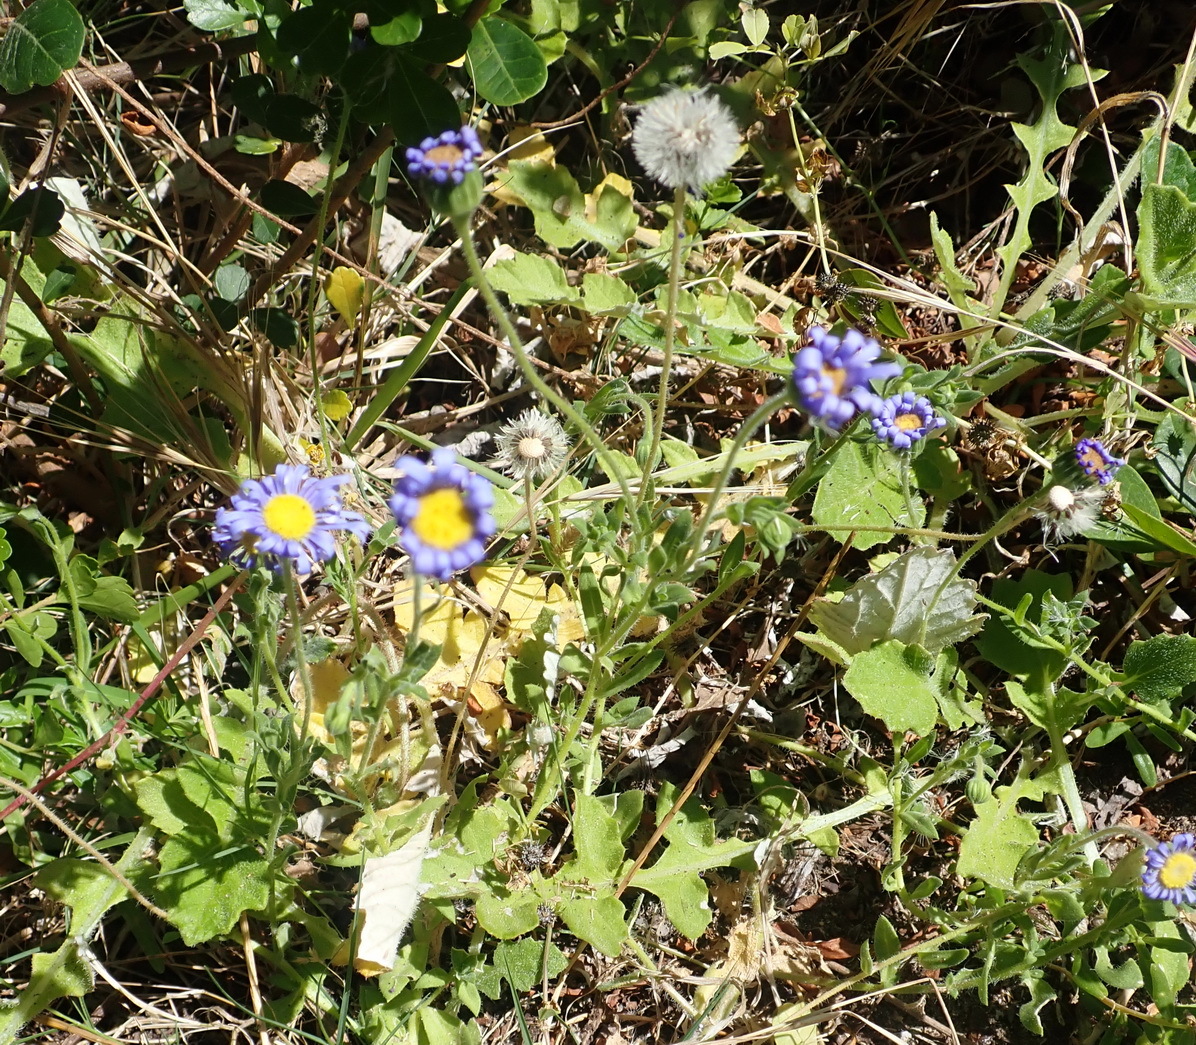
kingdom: Plantae
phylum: Tracheophyta
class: Magnoliopsida
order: Asterales
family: Asteraceae
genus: Felicia
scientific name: Felicia amoena
